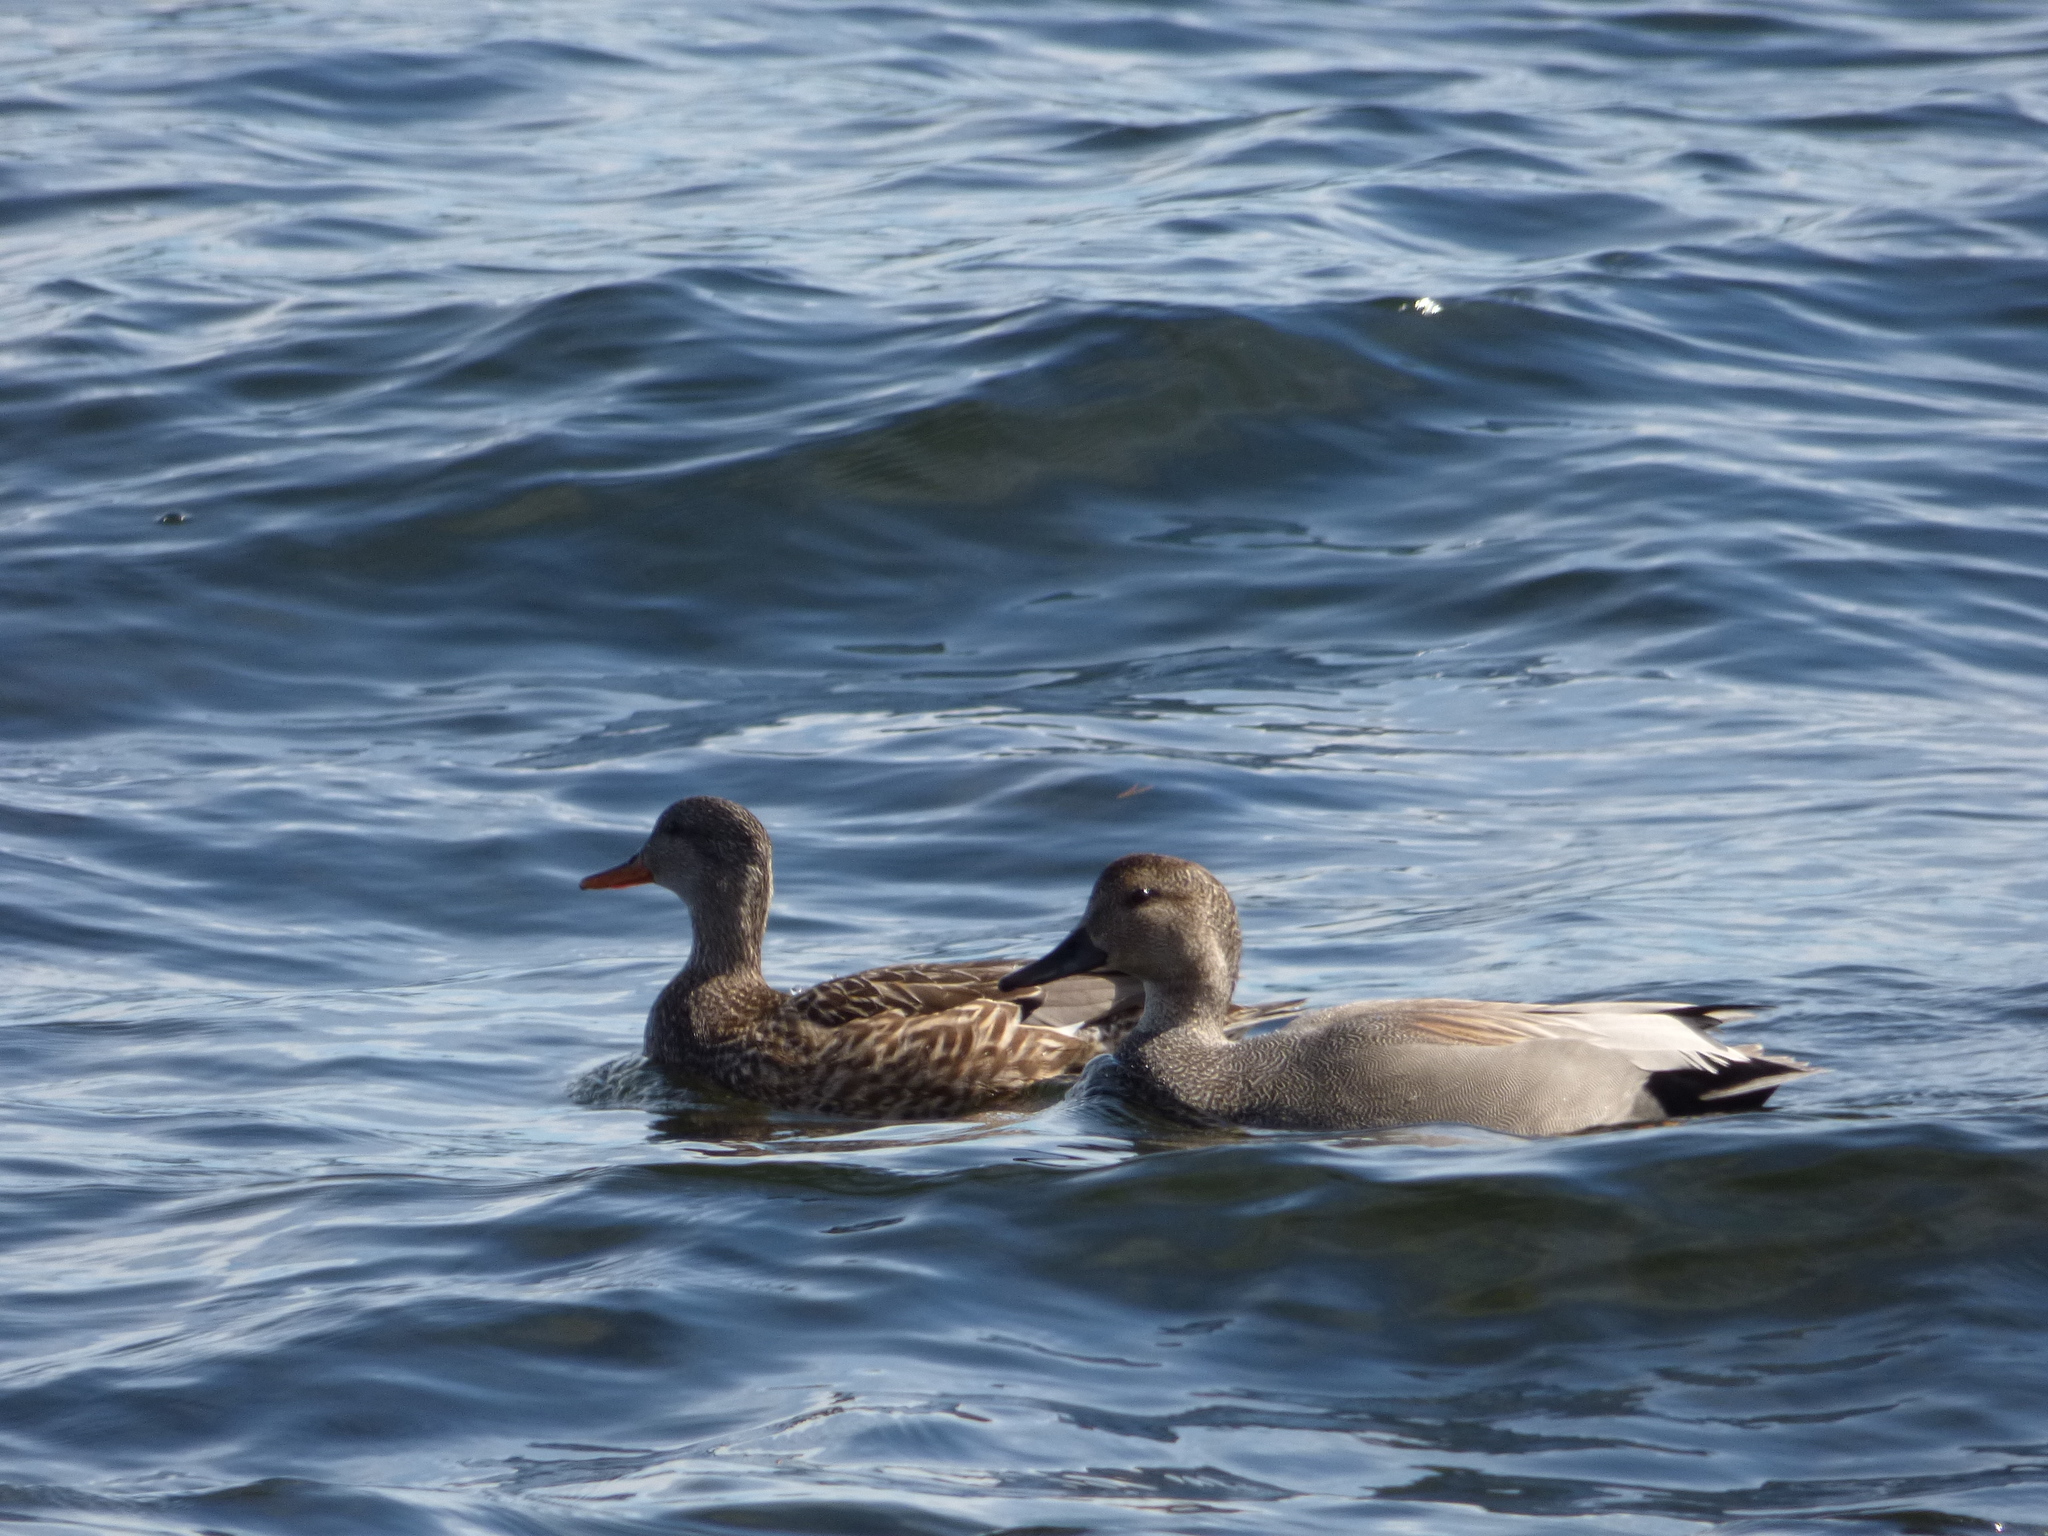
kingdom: Animalia
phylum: Chordata
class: Aves
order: Anseriformes
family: Anatidae
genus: Mareca
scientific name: Mareca strepera
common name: Gadwall
